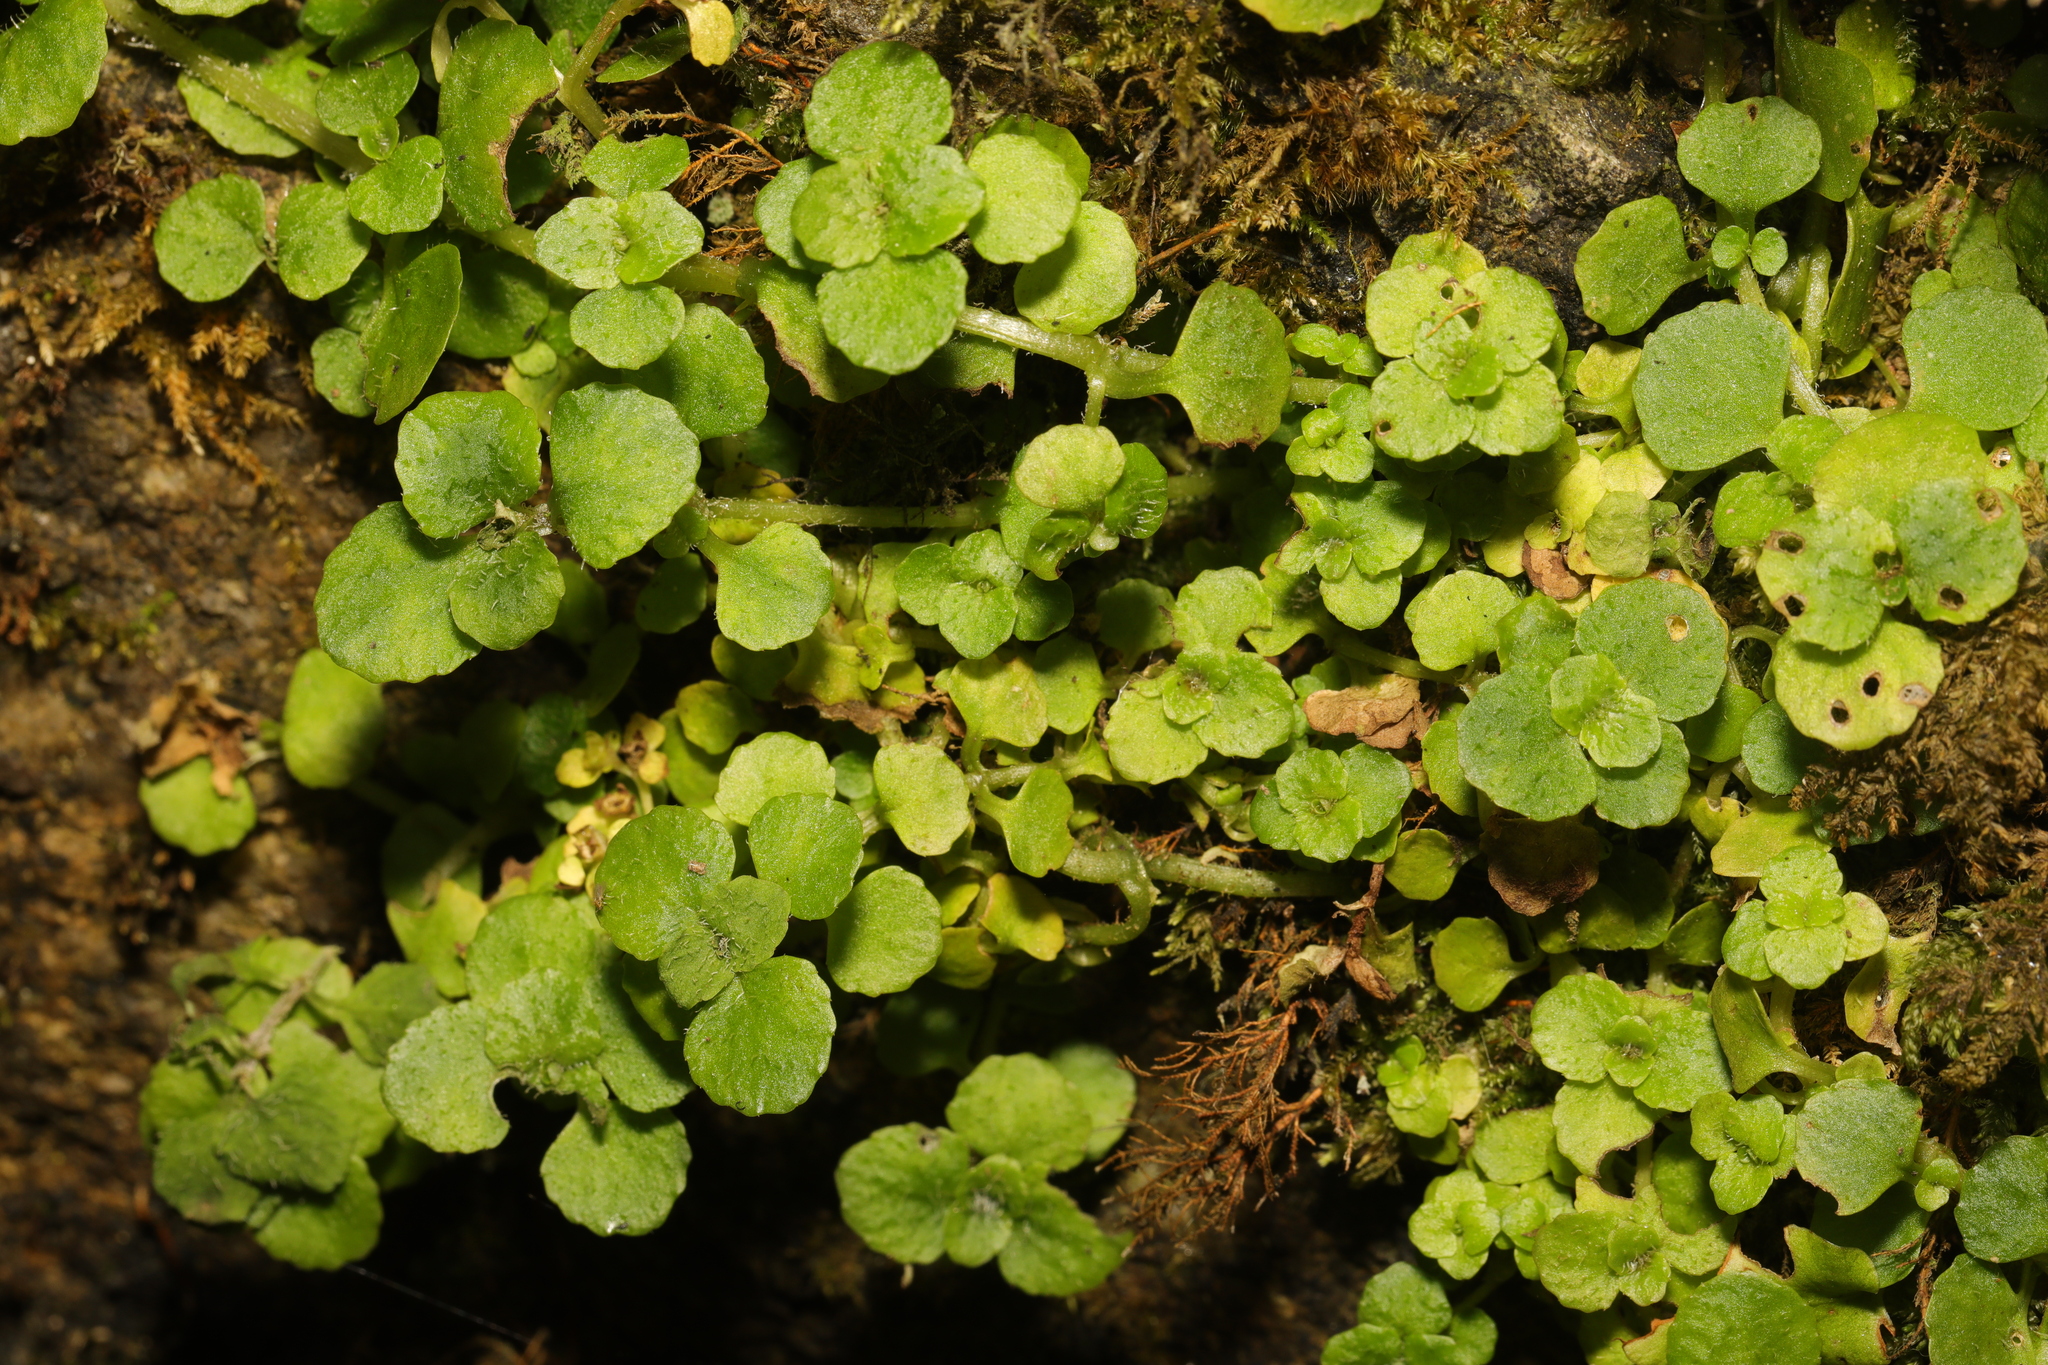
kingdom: Plantae
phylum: Tracheophyta
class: Magnoliopsida
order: Saxifragales
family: Saxifragaceae
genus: Chrysosplenium
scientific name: Chrysosplenium oppositifolium
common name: Opposite-leaved golden-saxifrage
